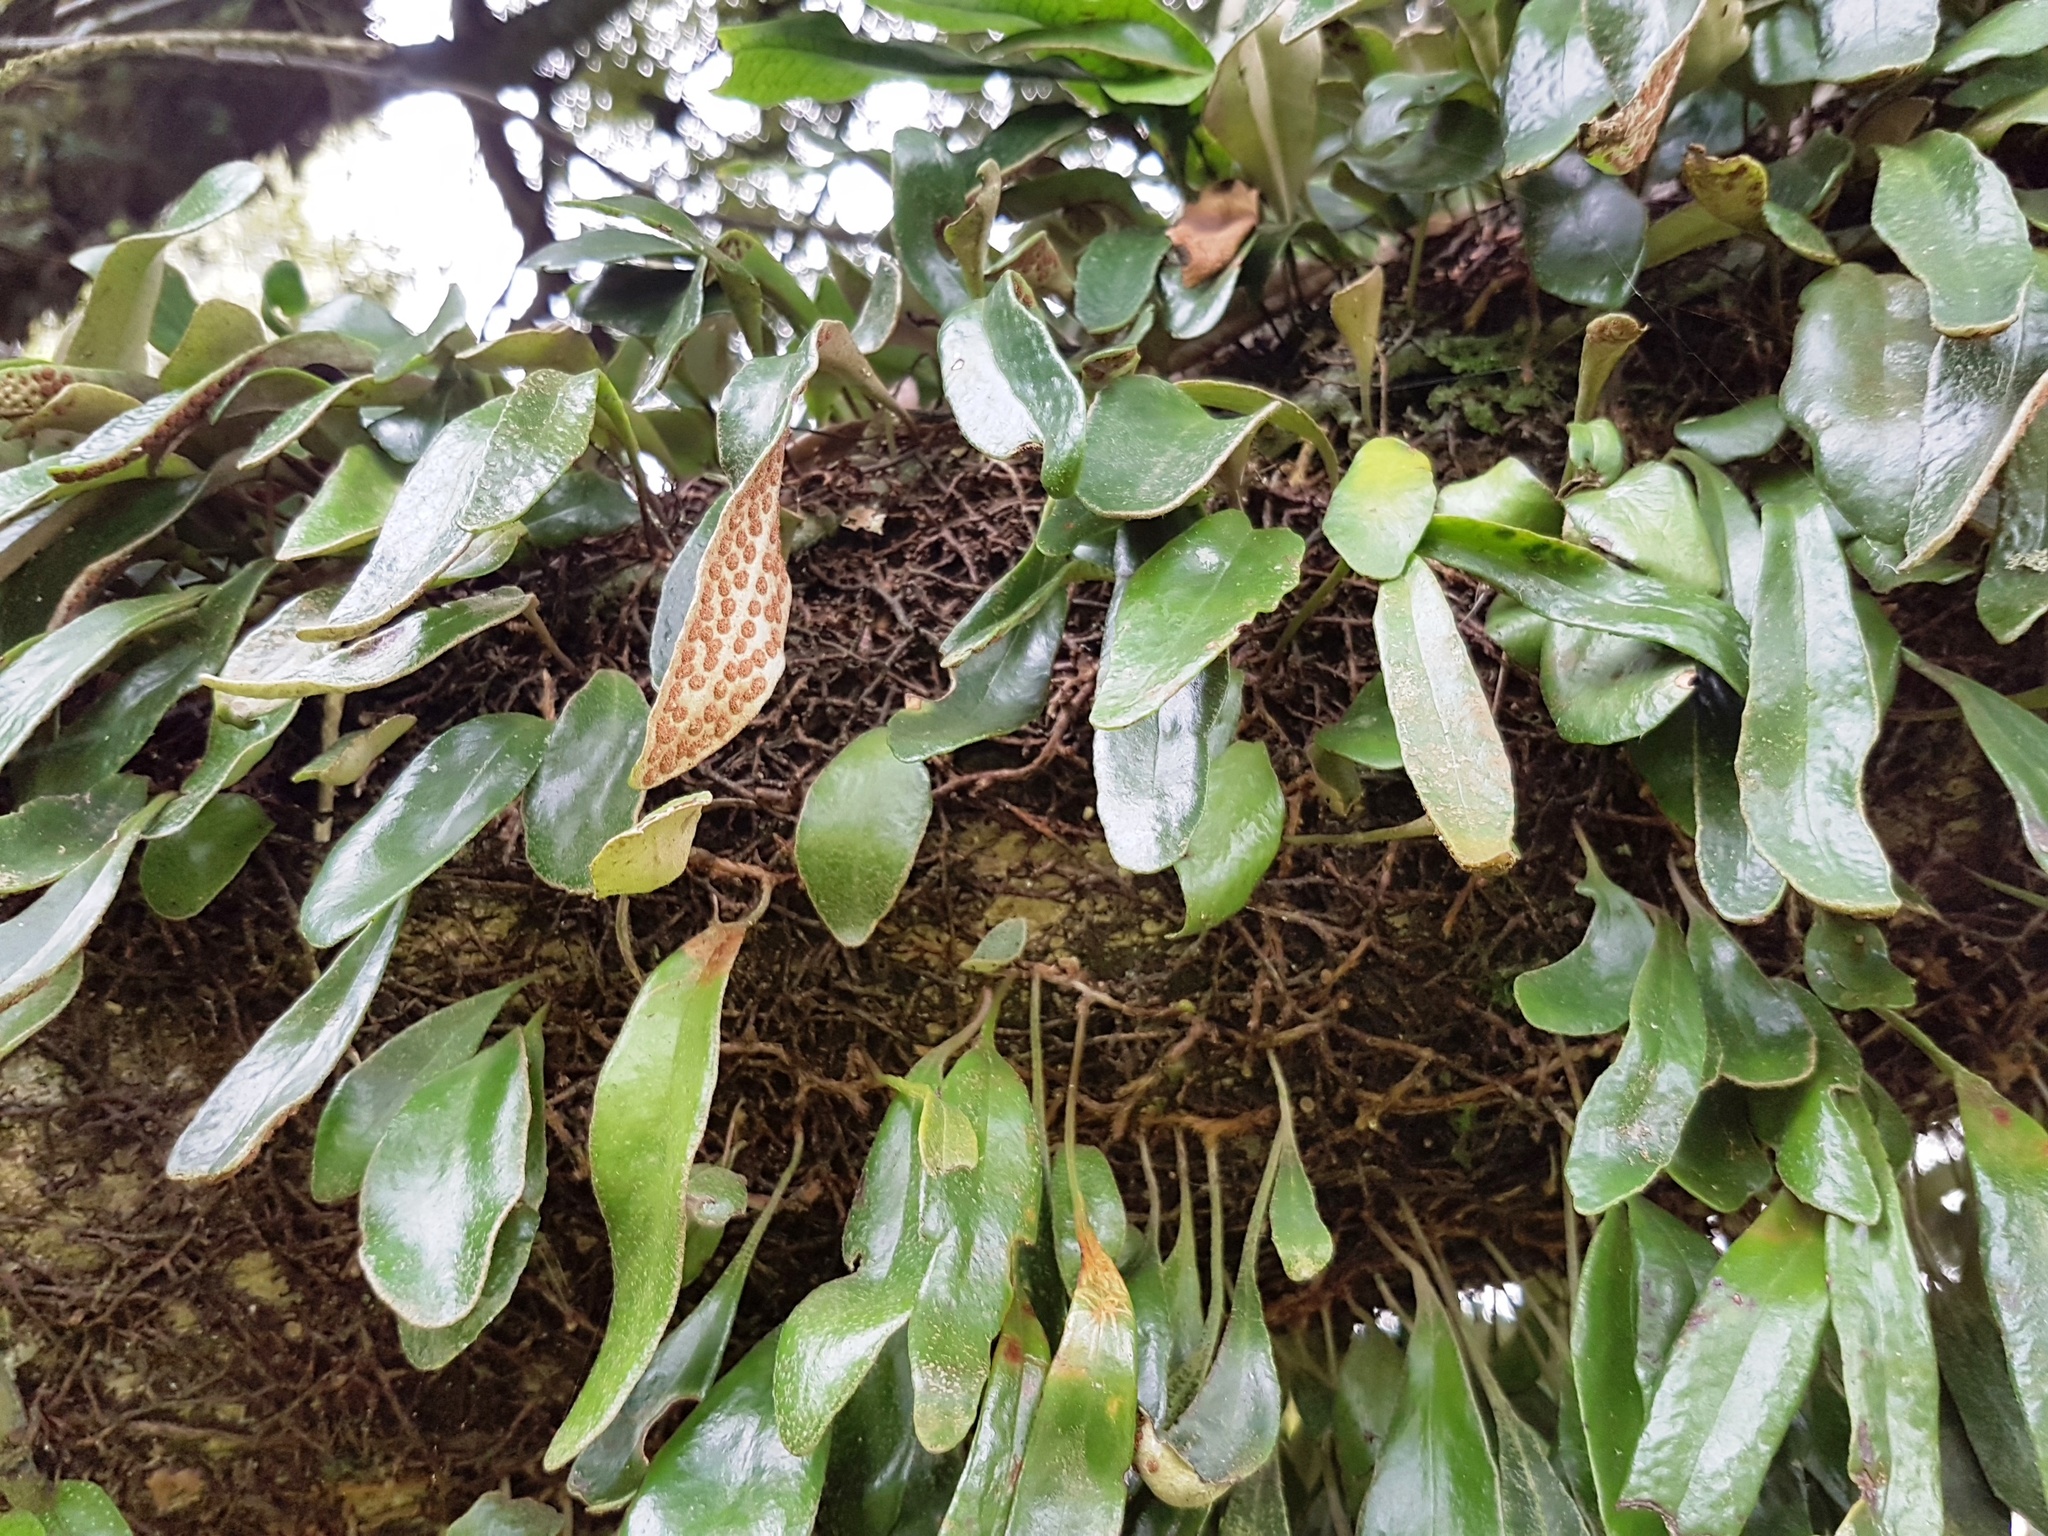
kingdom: Plantae
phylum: Tracheophyta
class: Polypodiopsida
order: Polypodiales
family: Polypodiaceae
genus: Pyrrosia
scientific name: Pyrrosia eleagnifolia
